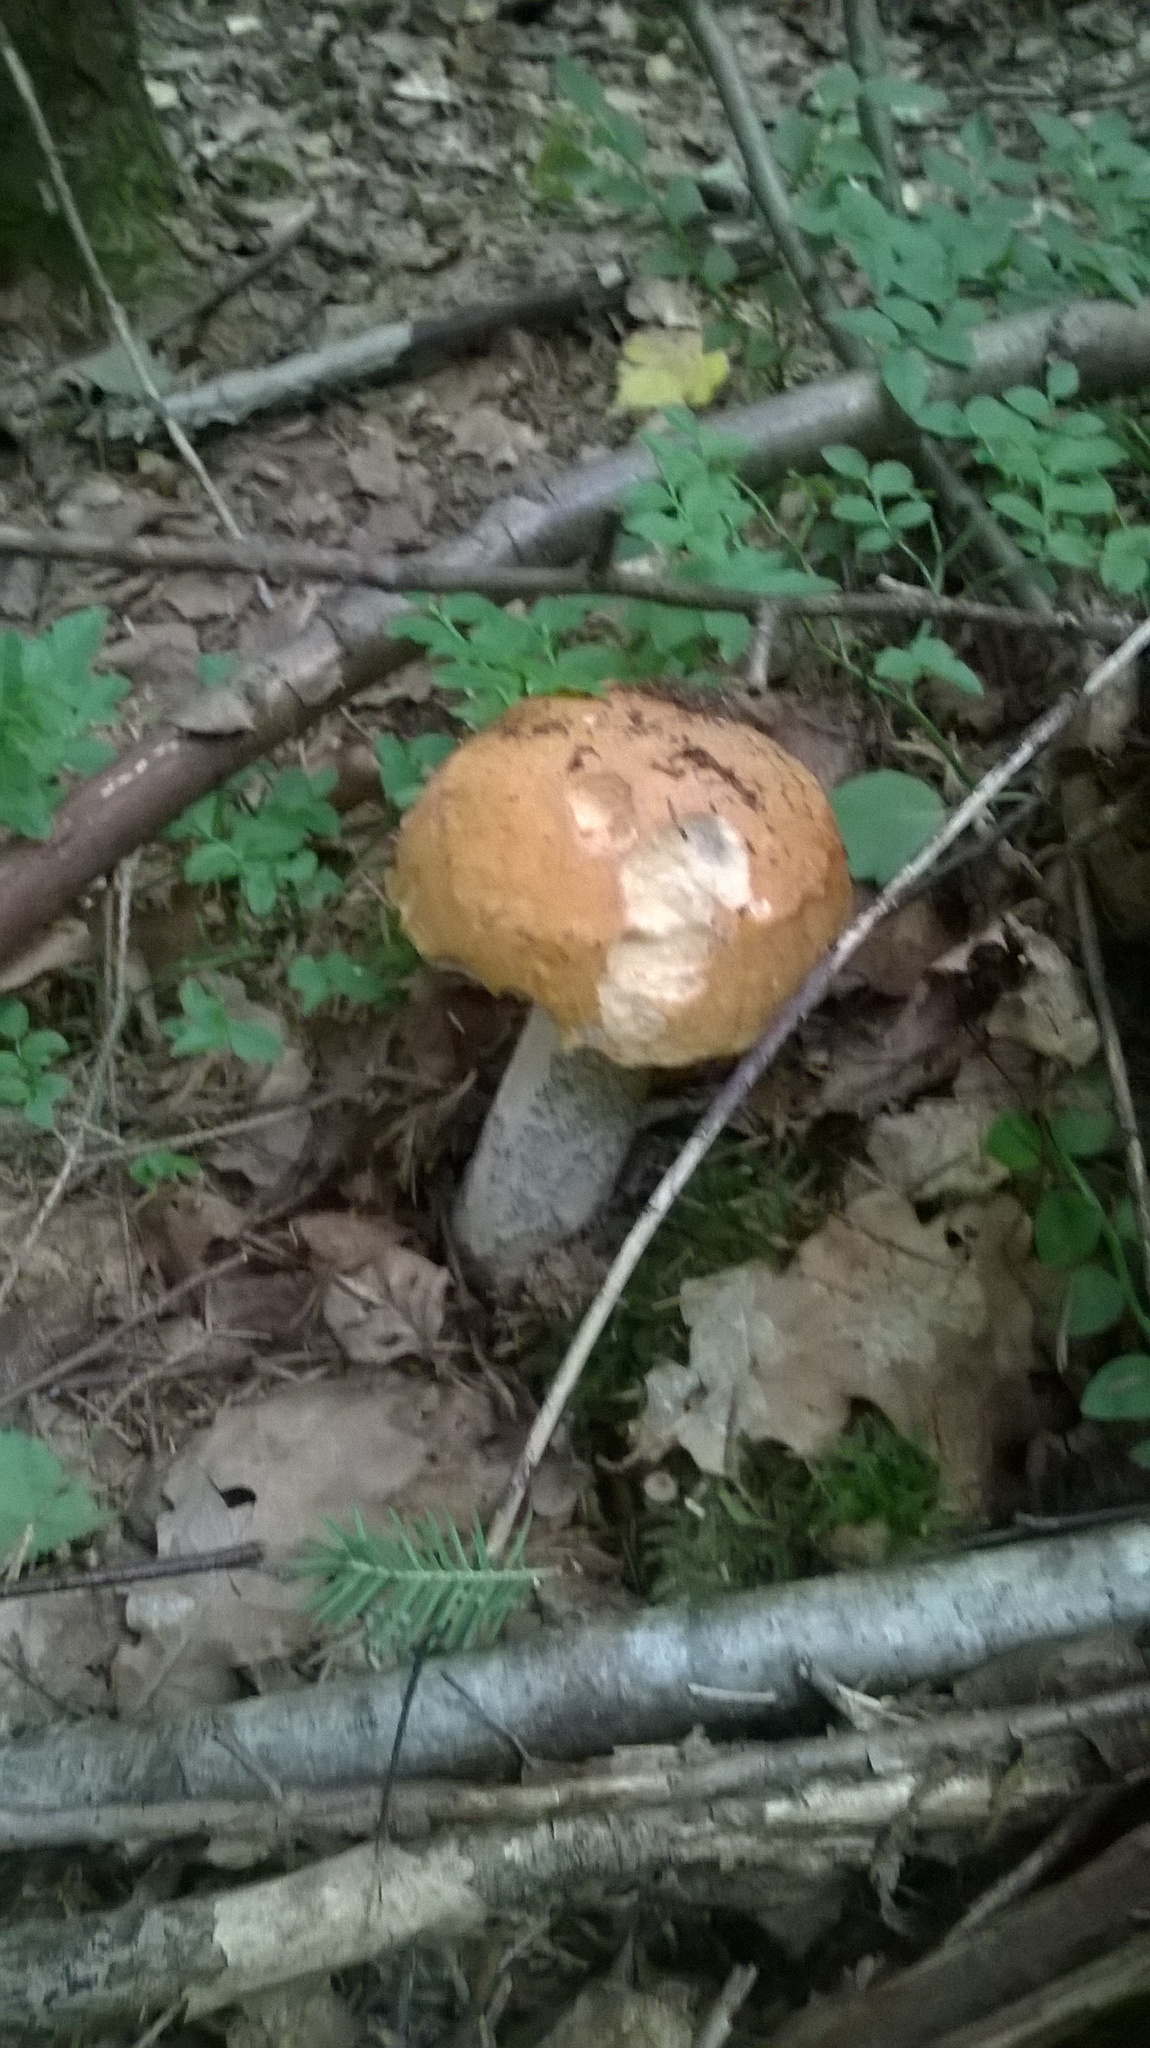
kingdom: Fungi
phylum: Basidiomycota
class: Agaricomycetes
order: Boletales
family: Boletaceae
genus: Leccinum
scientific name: Leccinum versipelle
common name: Orange birch bolete
